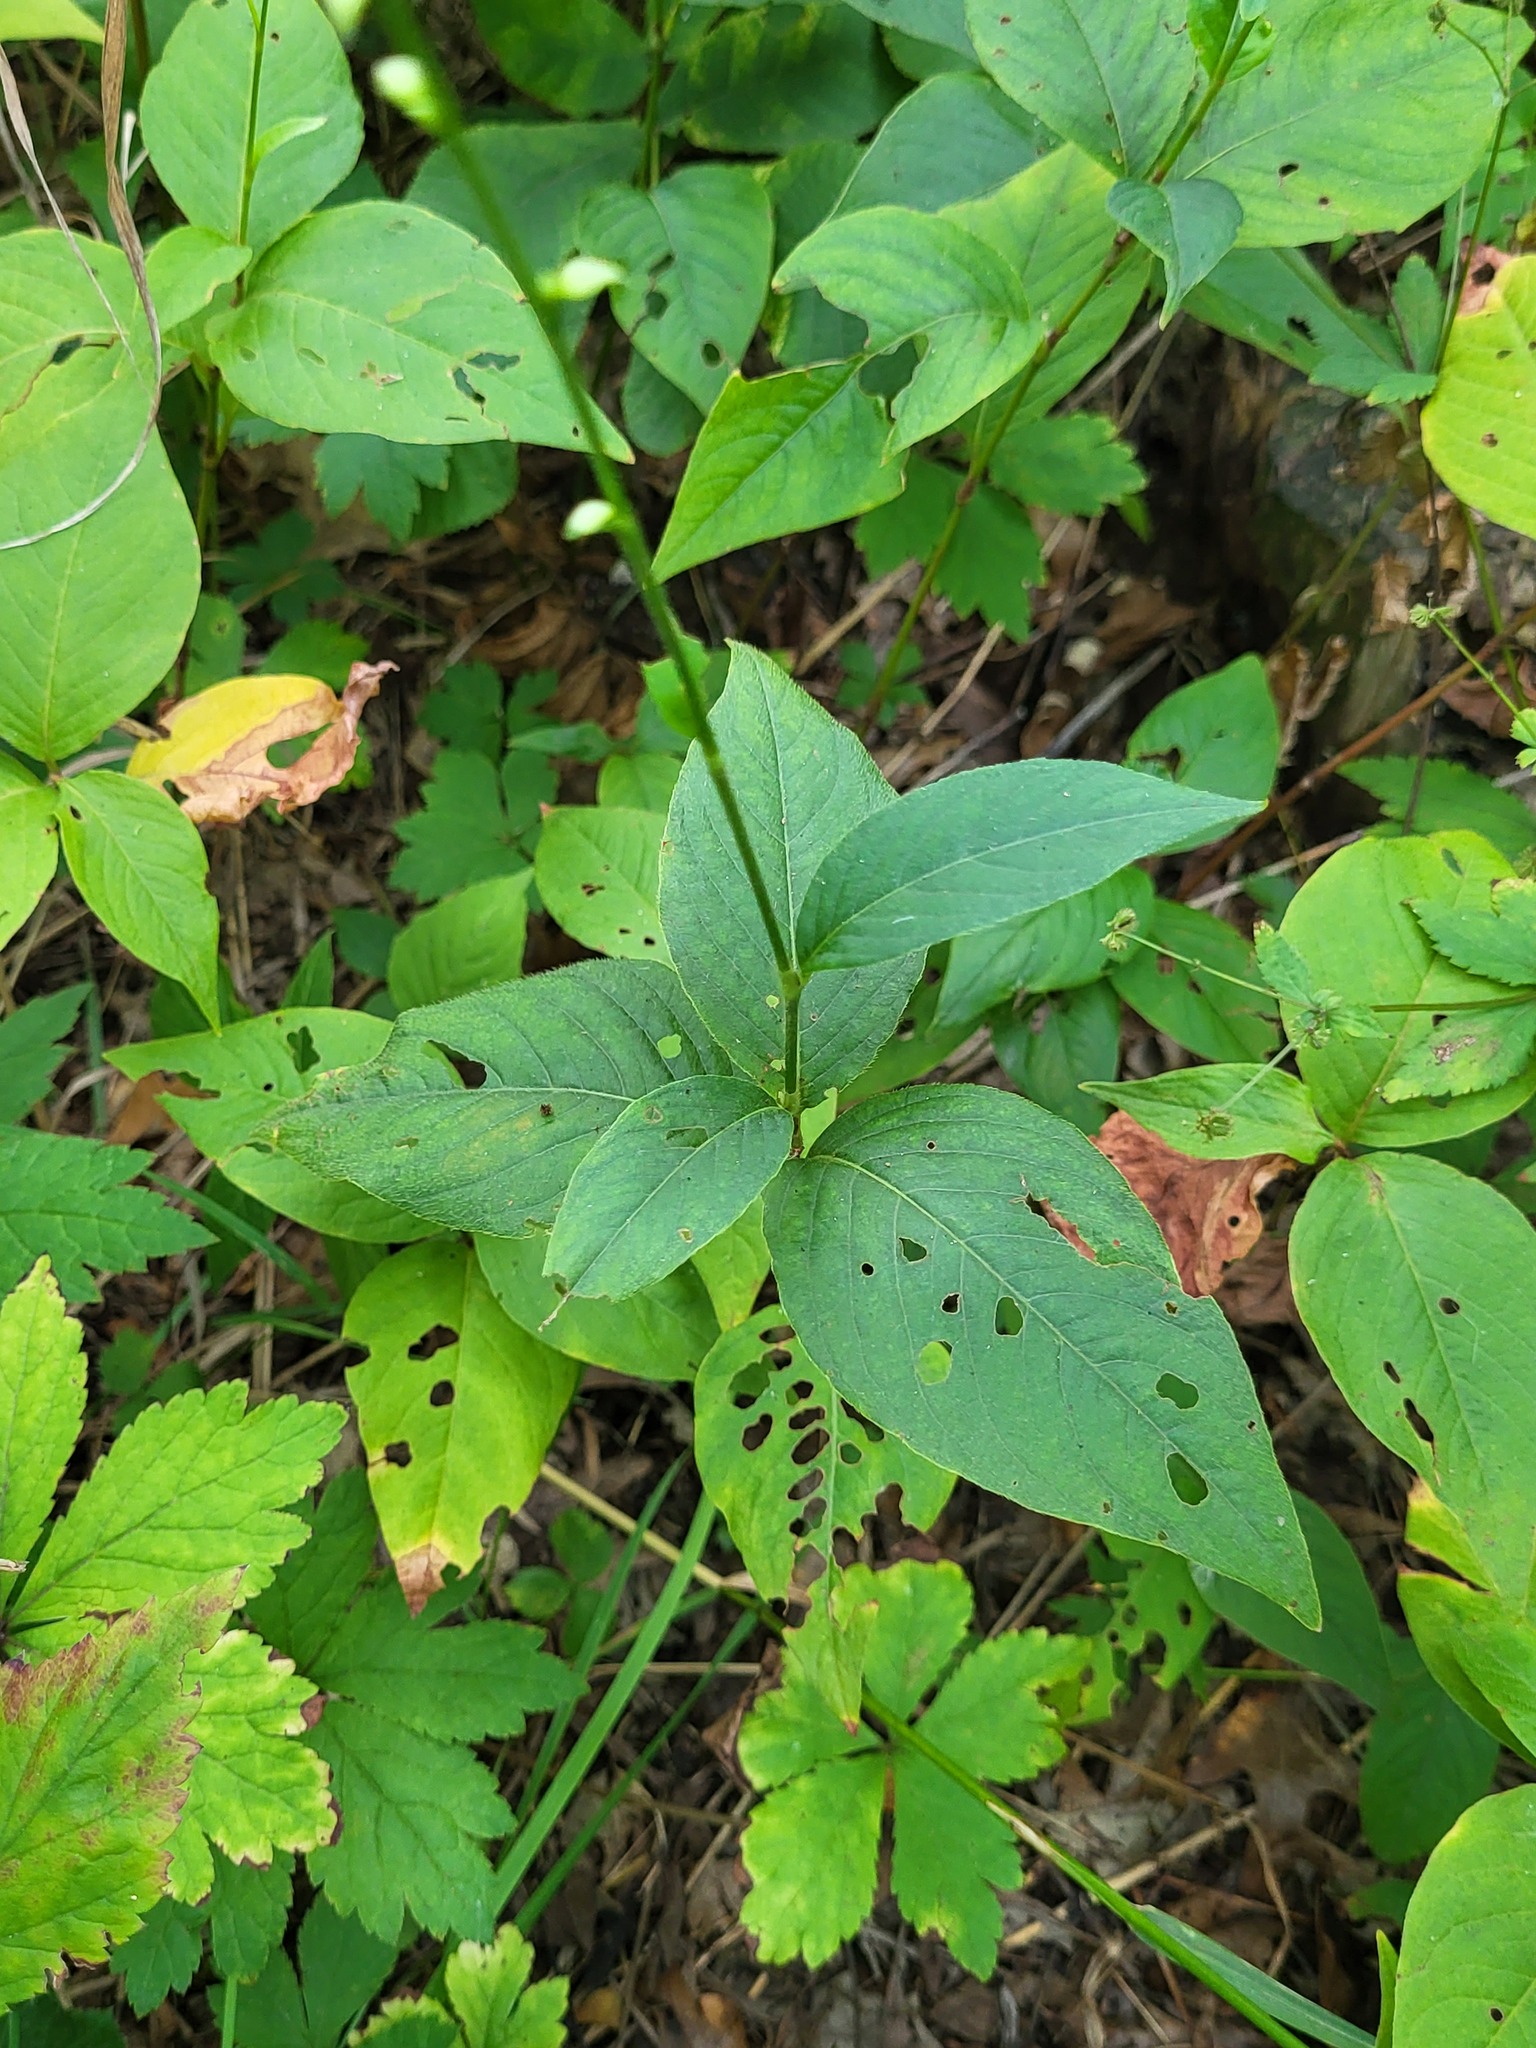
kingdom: Plantae
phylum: Tracheophyta
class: Magnoliopsida
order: Caryophyllales
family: Polygonaceae
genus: Persicaria
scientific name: Persicaria virginiana
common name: Jumpseed
